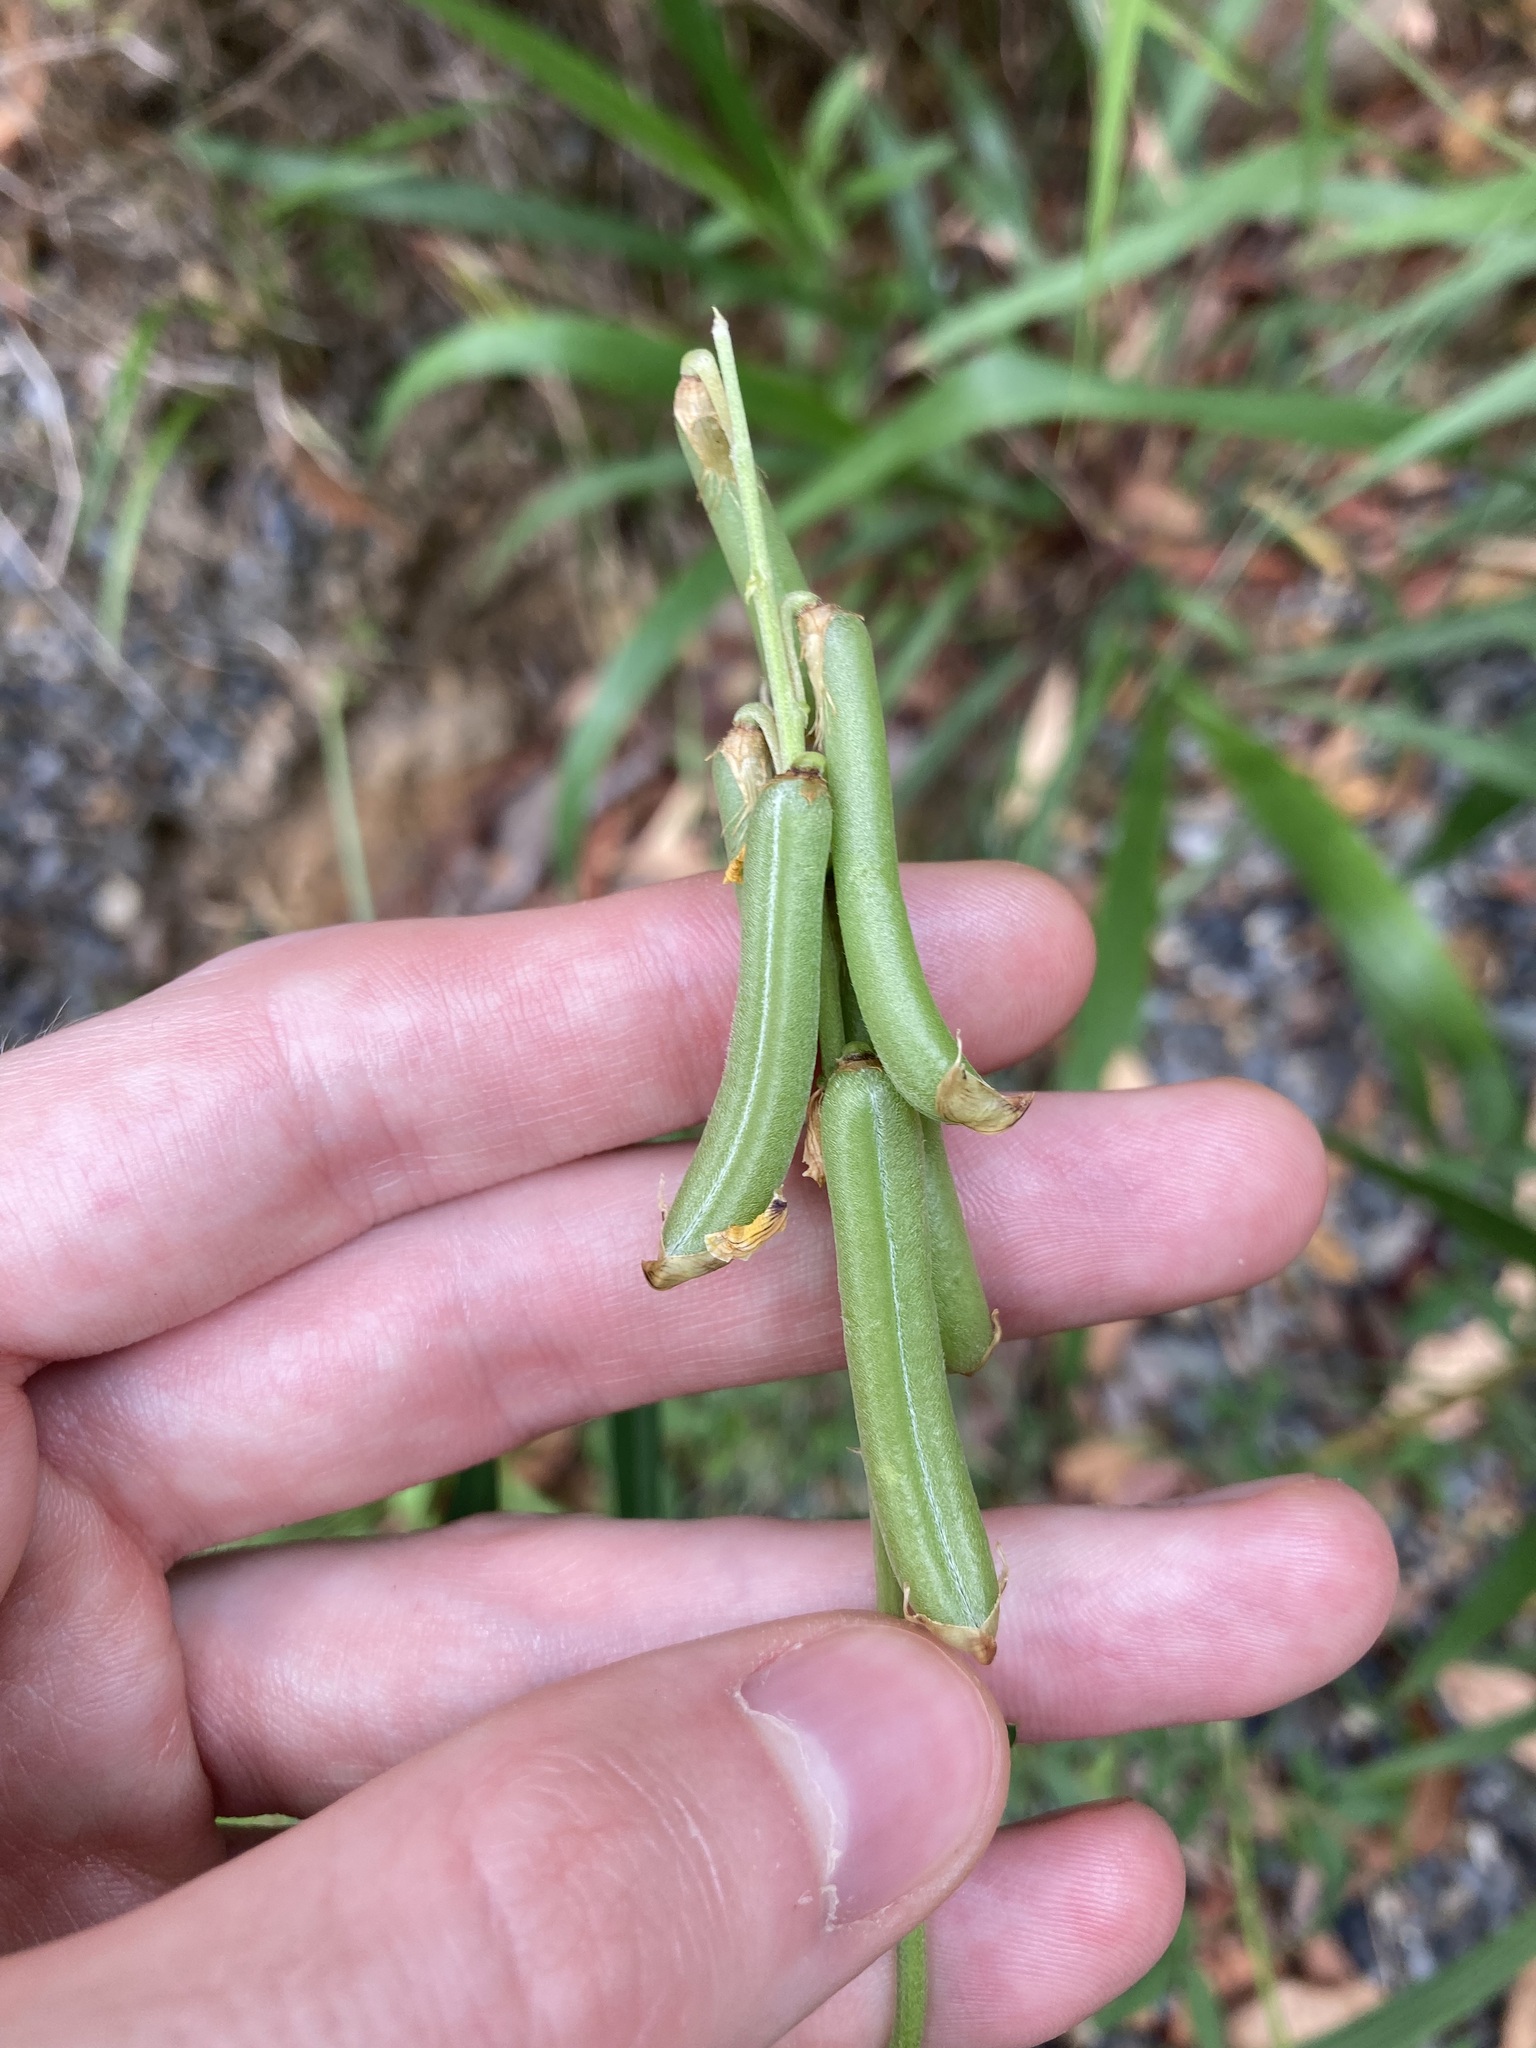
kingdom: Plantae
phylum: Tracheophyta
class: Magnoliopsida
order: Fabales
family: Fabaceae
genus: Crotalaria
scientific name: Crotalaria lanceolata
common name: Lanceleaf rattlebox
